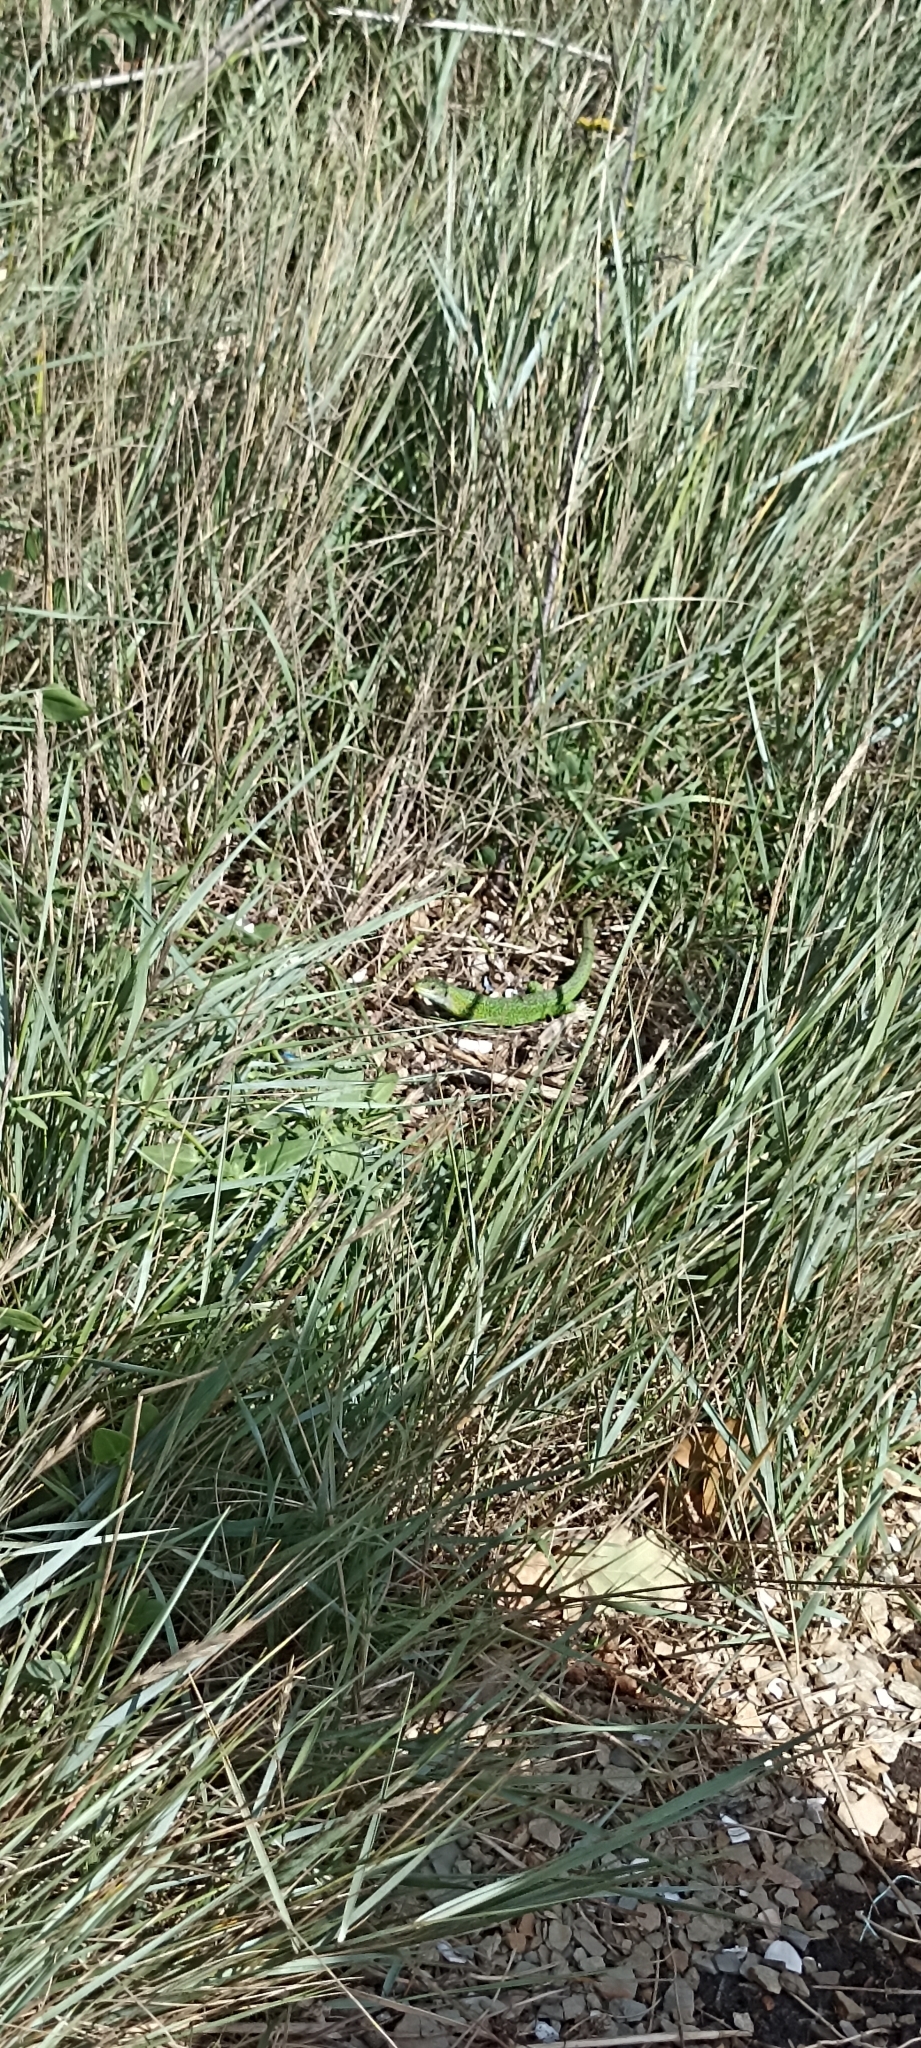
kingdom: Animalia
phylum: Chordata
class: Squamata
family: Lacertidae
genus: Lacerta
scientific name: Lacerta bilineata
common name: Western green lizard
